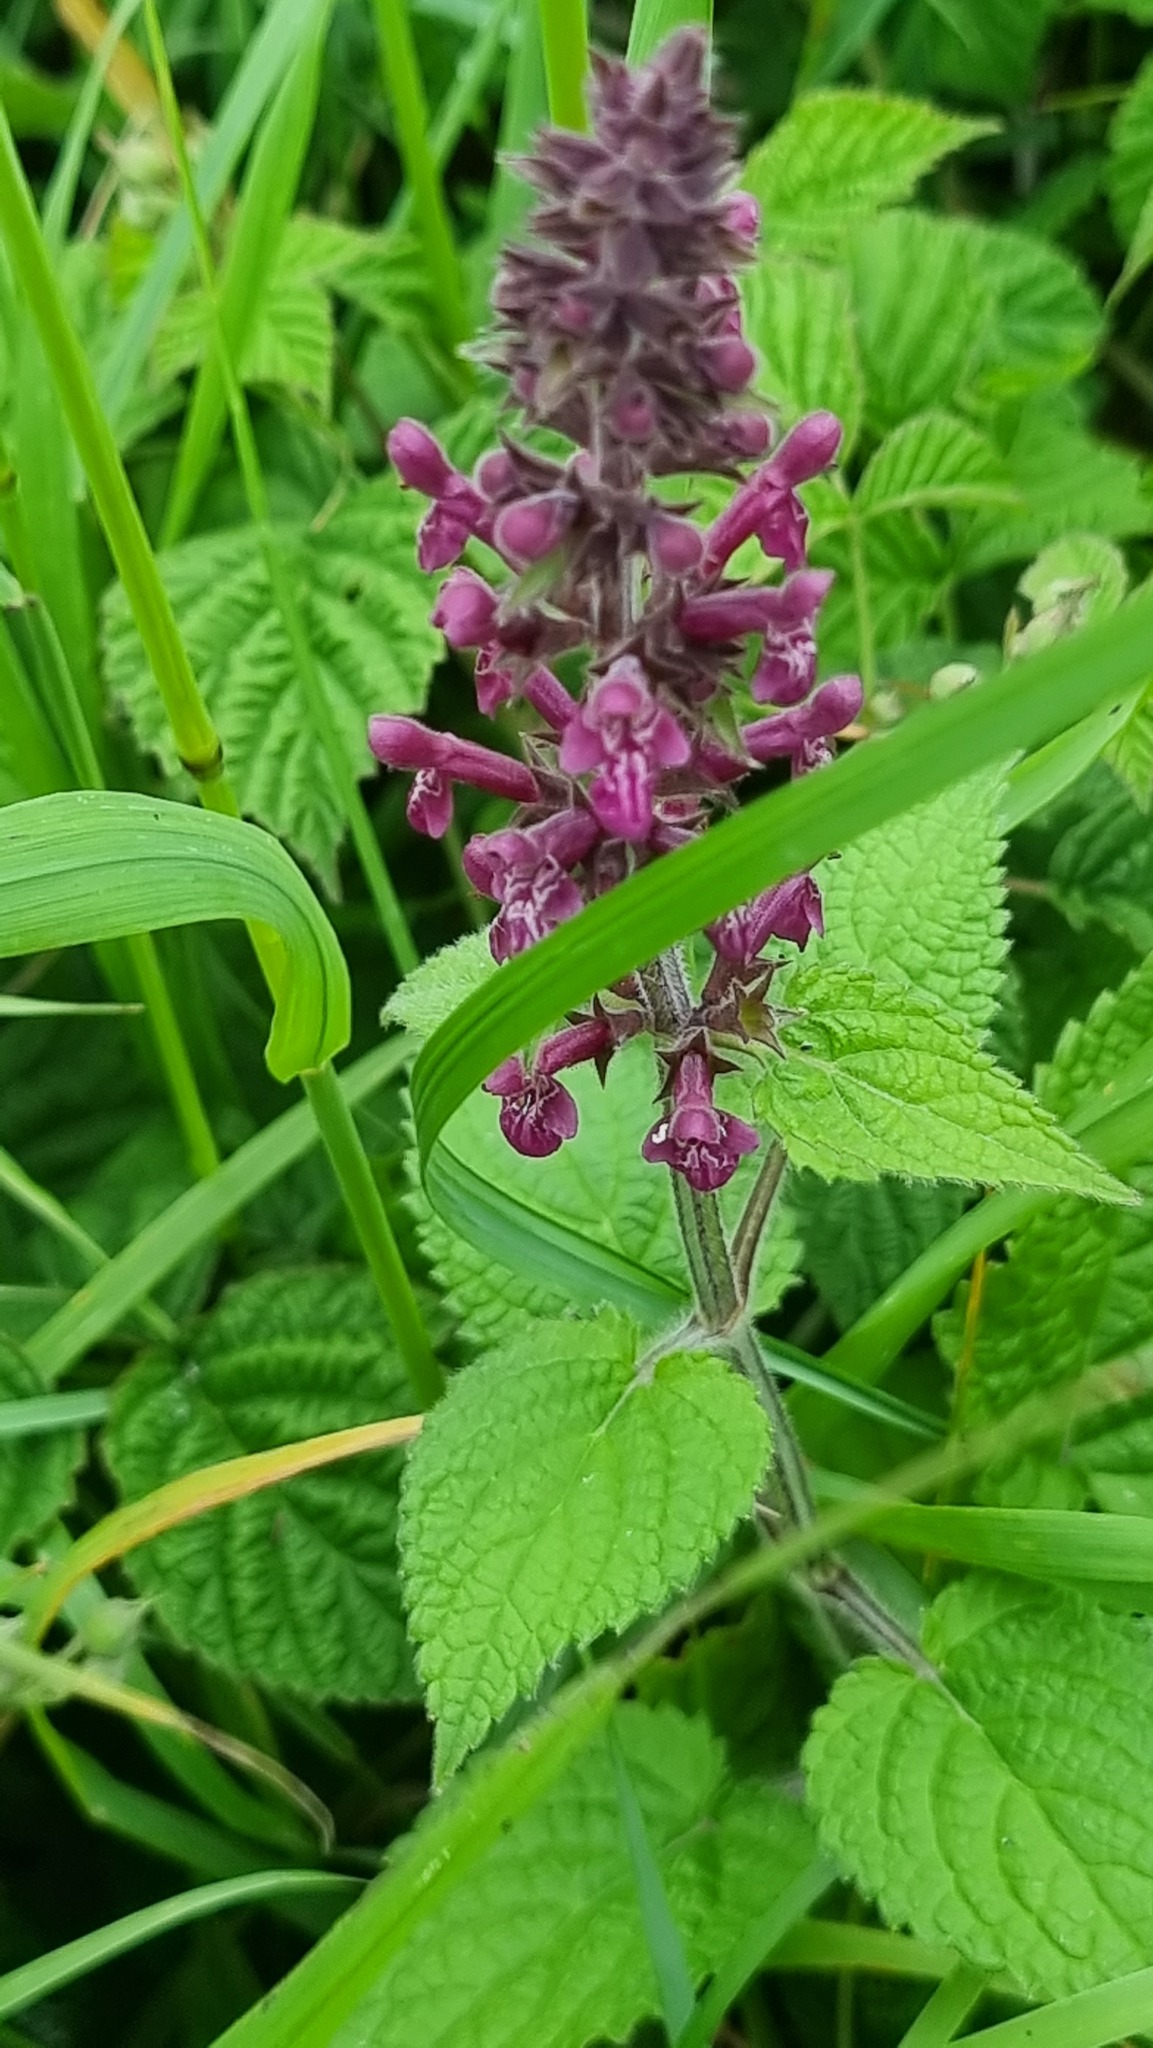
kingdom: Plantae
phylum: Tracheophyta
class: Magnoliopsida
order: Lamiales
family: Lamiaceae
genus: Stachys
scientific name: Stachys sylvatica
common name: Hedge woundwort
